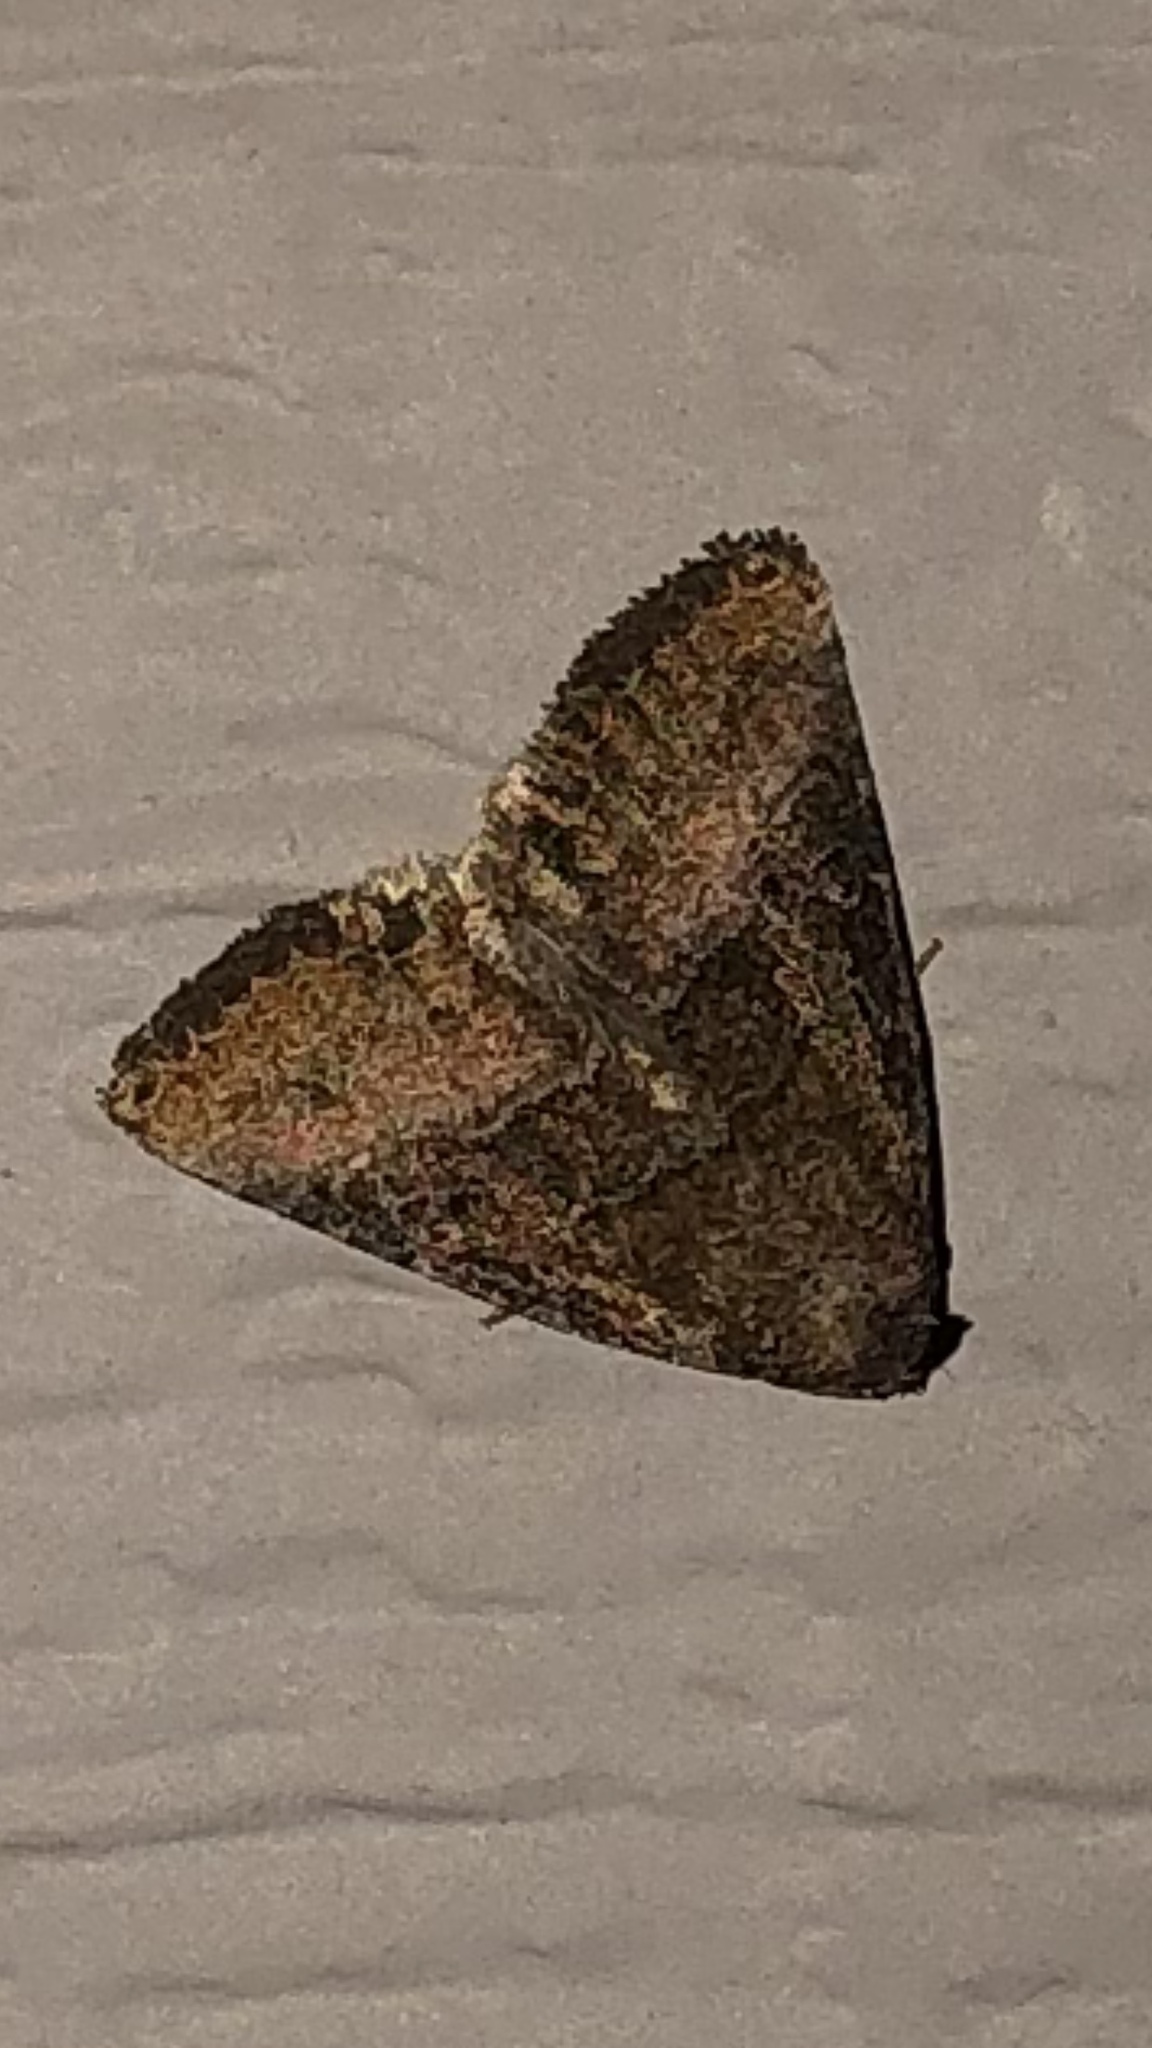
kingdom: Animalia
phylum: Arthropoda
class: Insecta
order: Lepidoptera
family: Noctuidae
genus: Ogdoconta
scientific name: Ogdoconta cinereola
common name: Common pinkband
